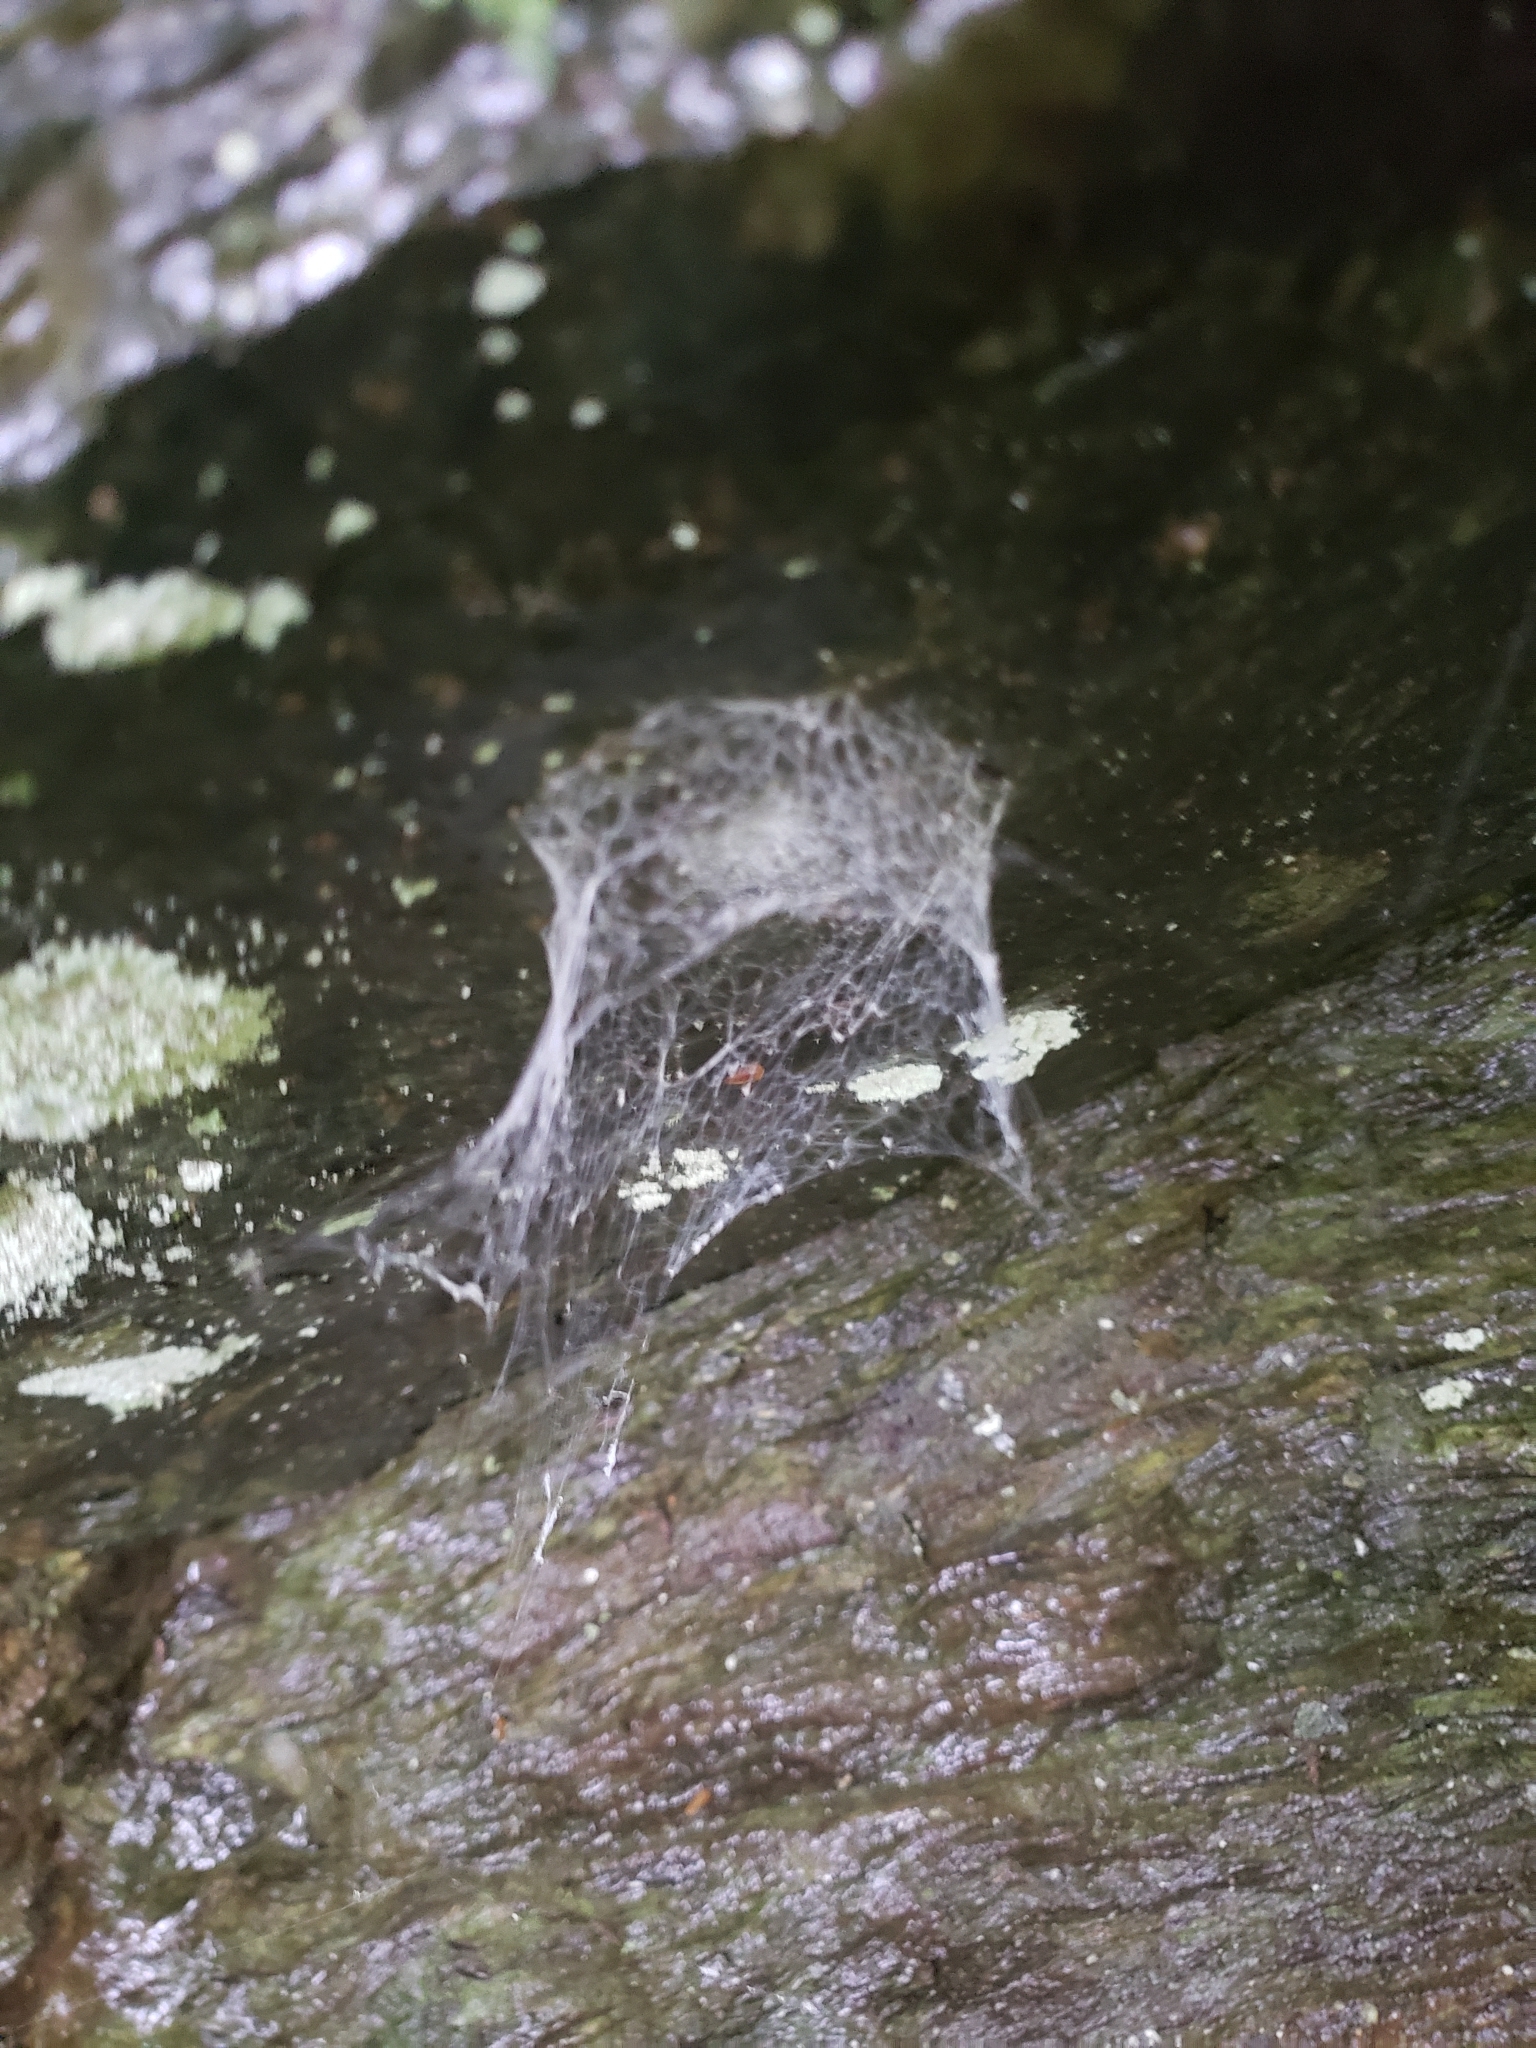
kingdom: Animalia
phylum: Arthropoda
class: Arachnida
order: Araneae
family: Hypochilidae
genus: Hypochilus
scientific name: Hypochilus pococki
